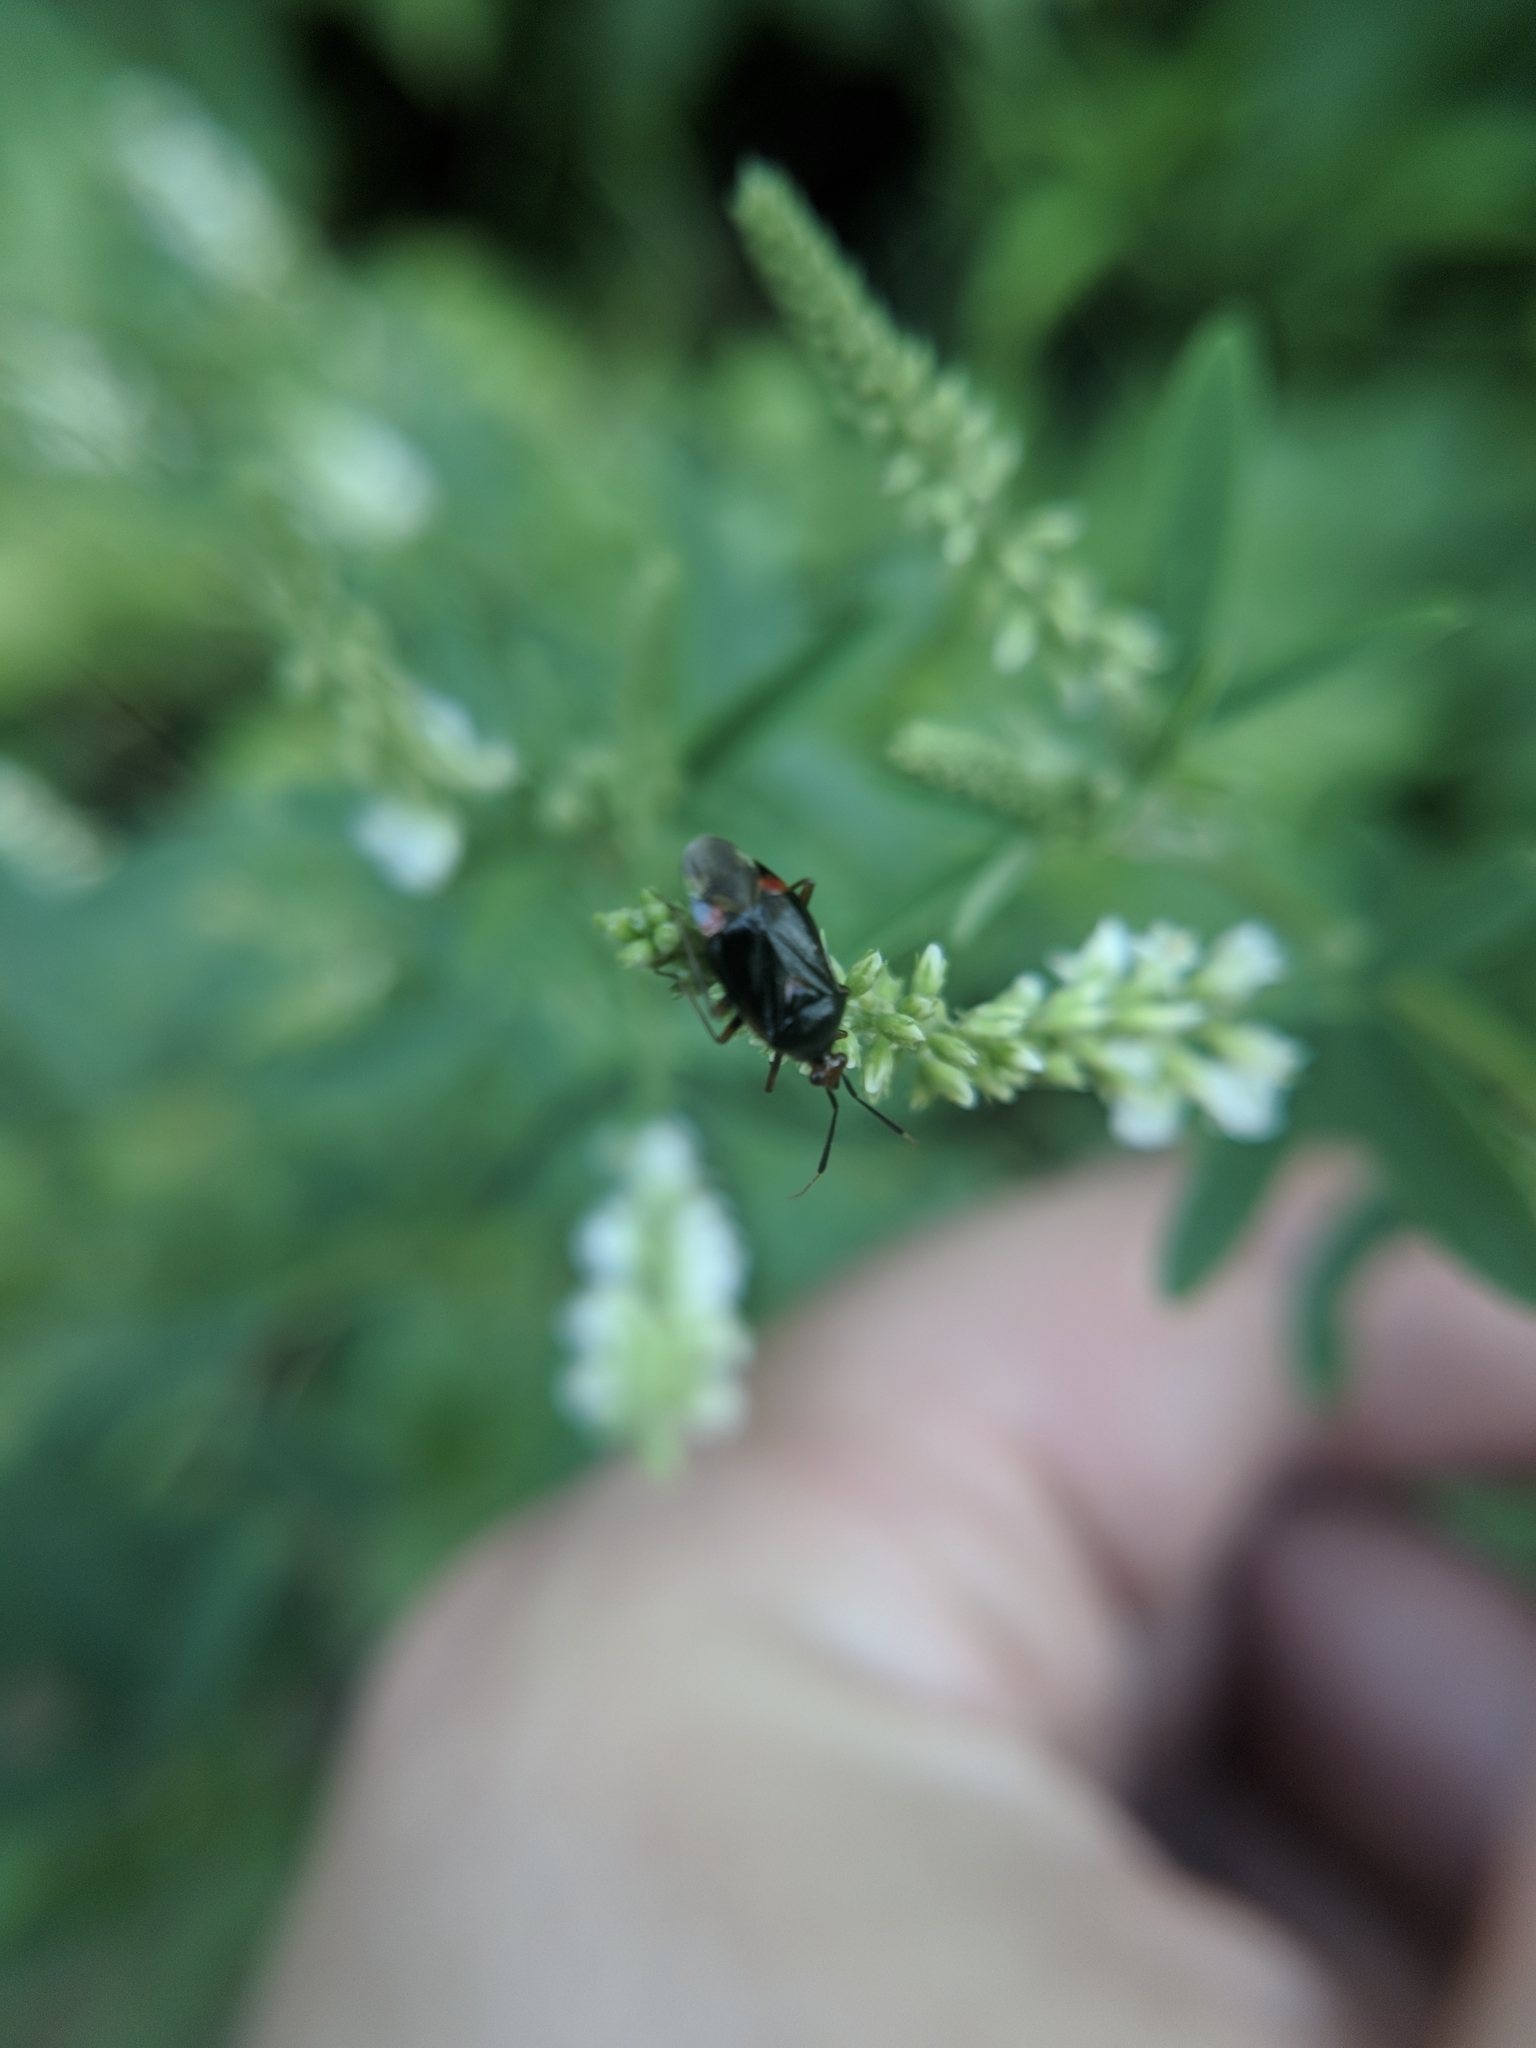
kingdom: Animalia
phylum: Arthropoda
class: Insecta
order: Hemiptera
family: Miridae
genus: Deraeocoris
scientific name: Deraeocoris ruber
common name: Plant bug
